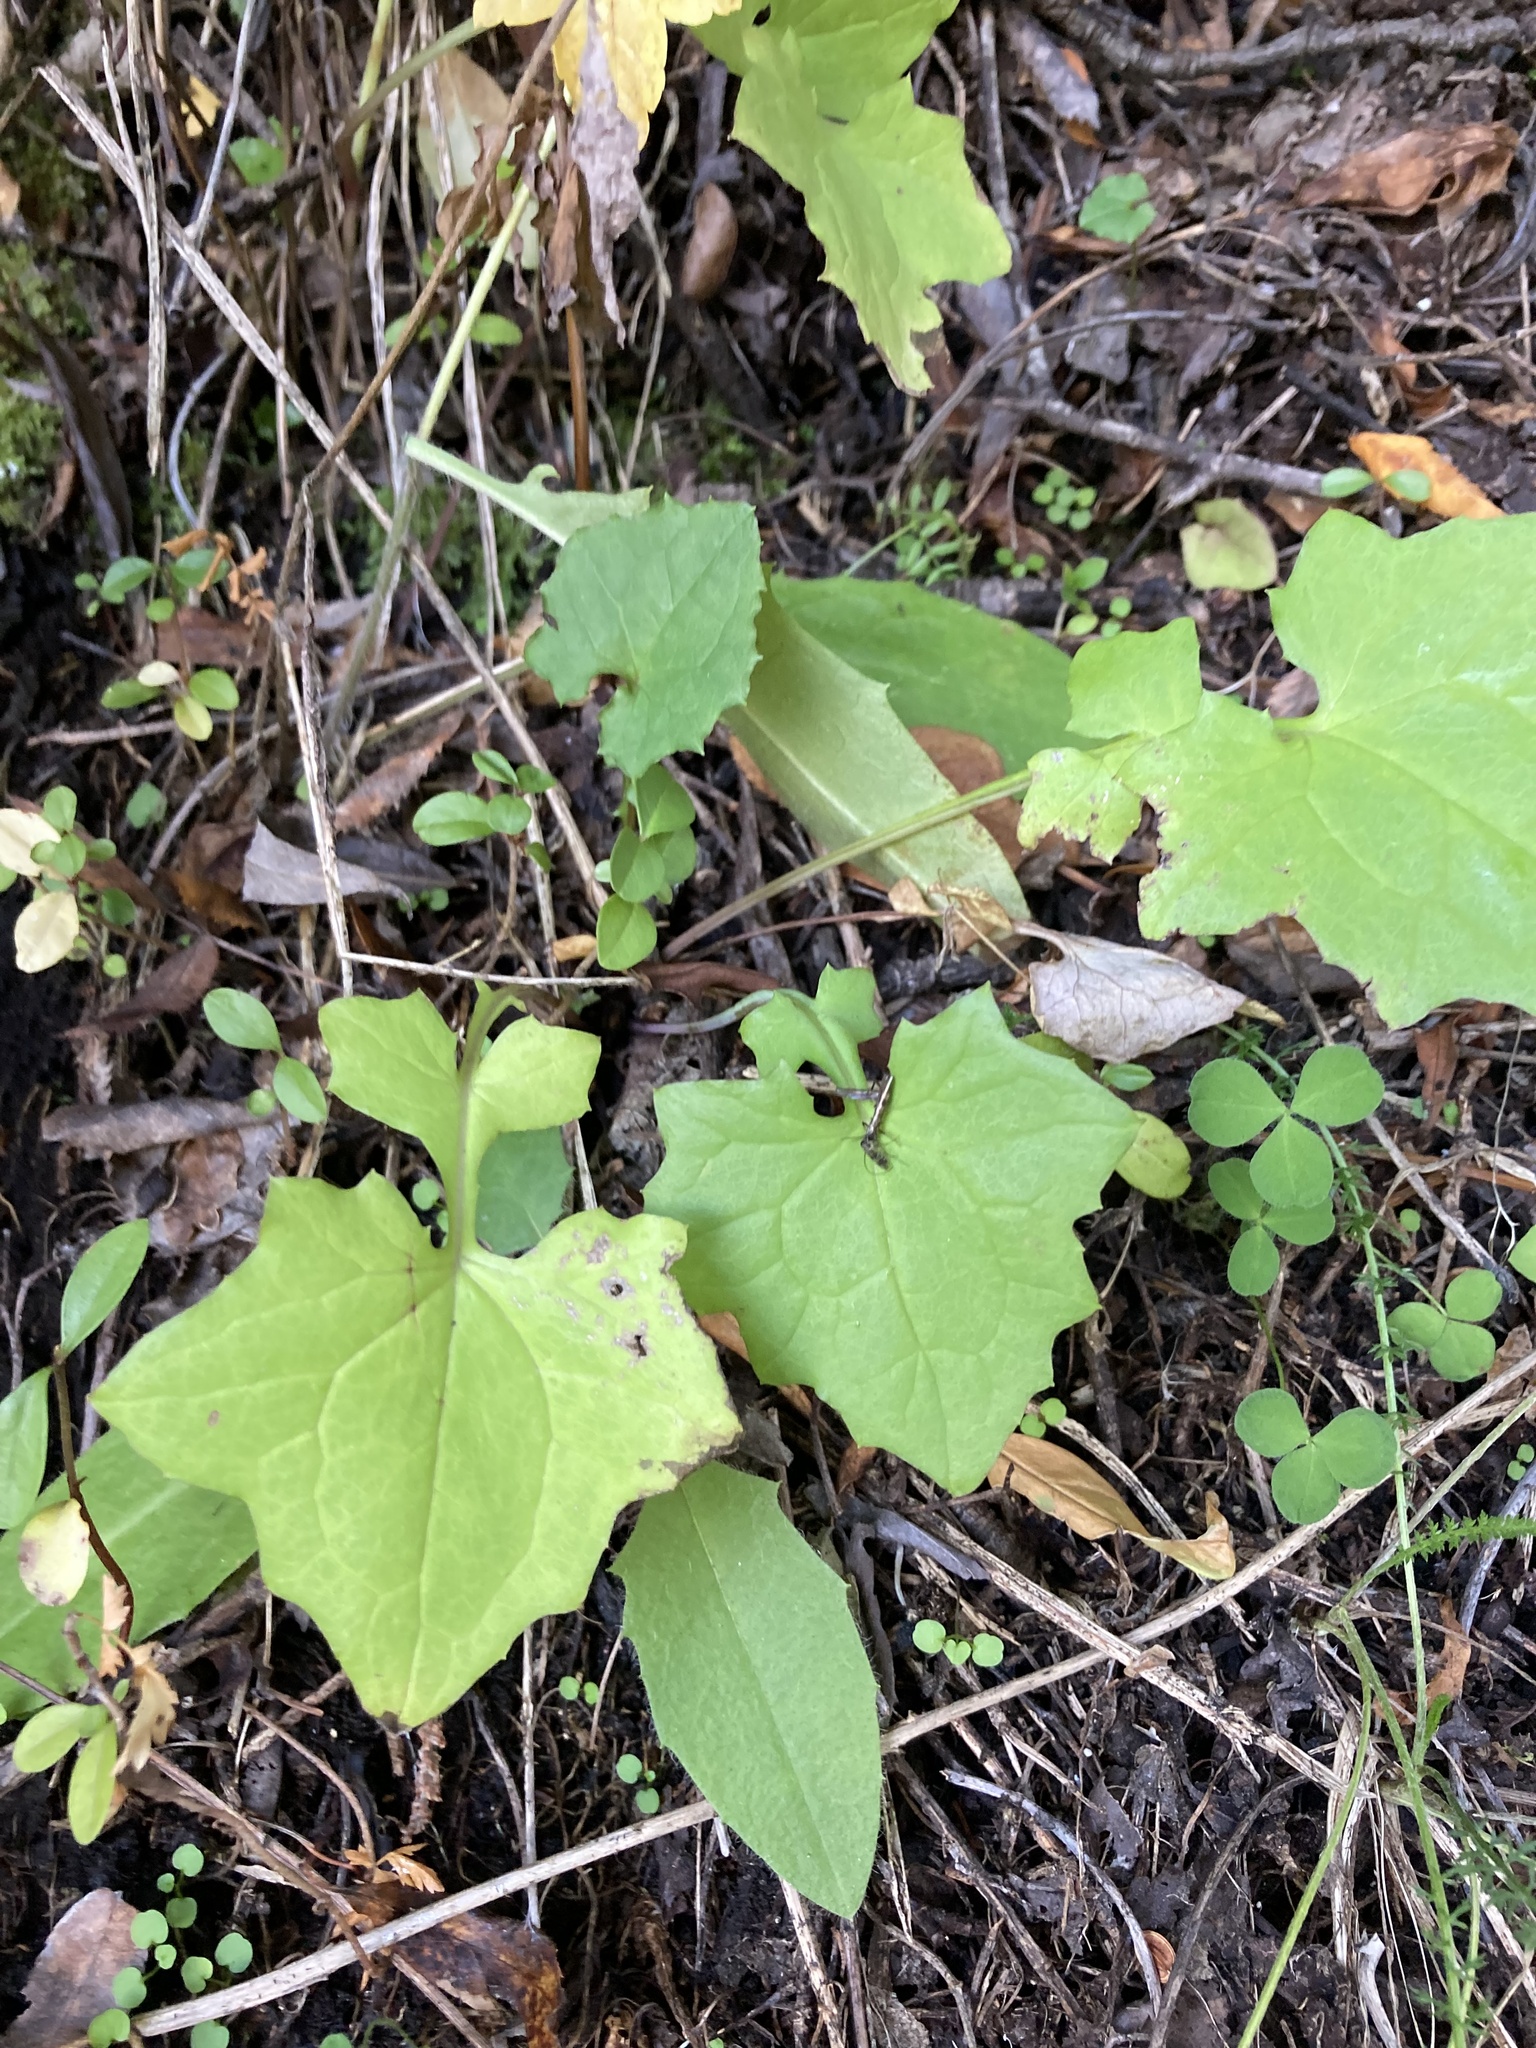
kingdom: Plantae
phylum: Tracheophyta
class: Magnoliopsida
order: Asterales
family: Asteraceae
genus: Mycelis
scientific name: Mycelis muralis
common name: Wall lettuce
